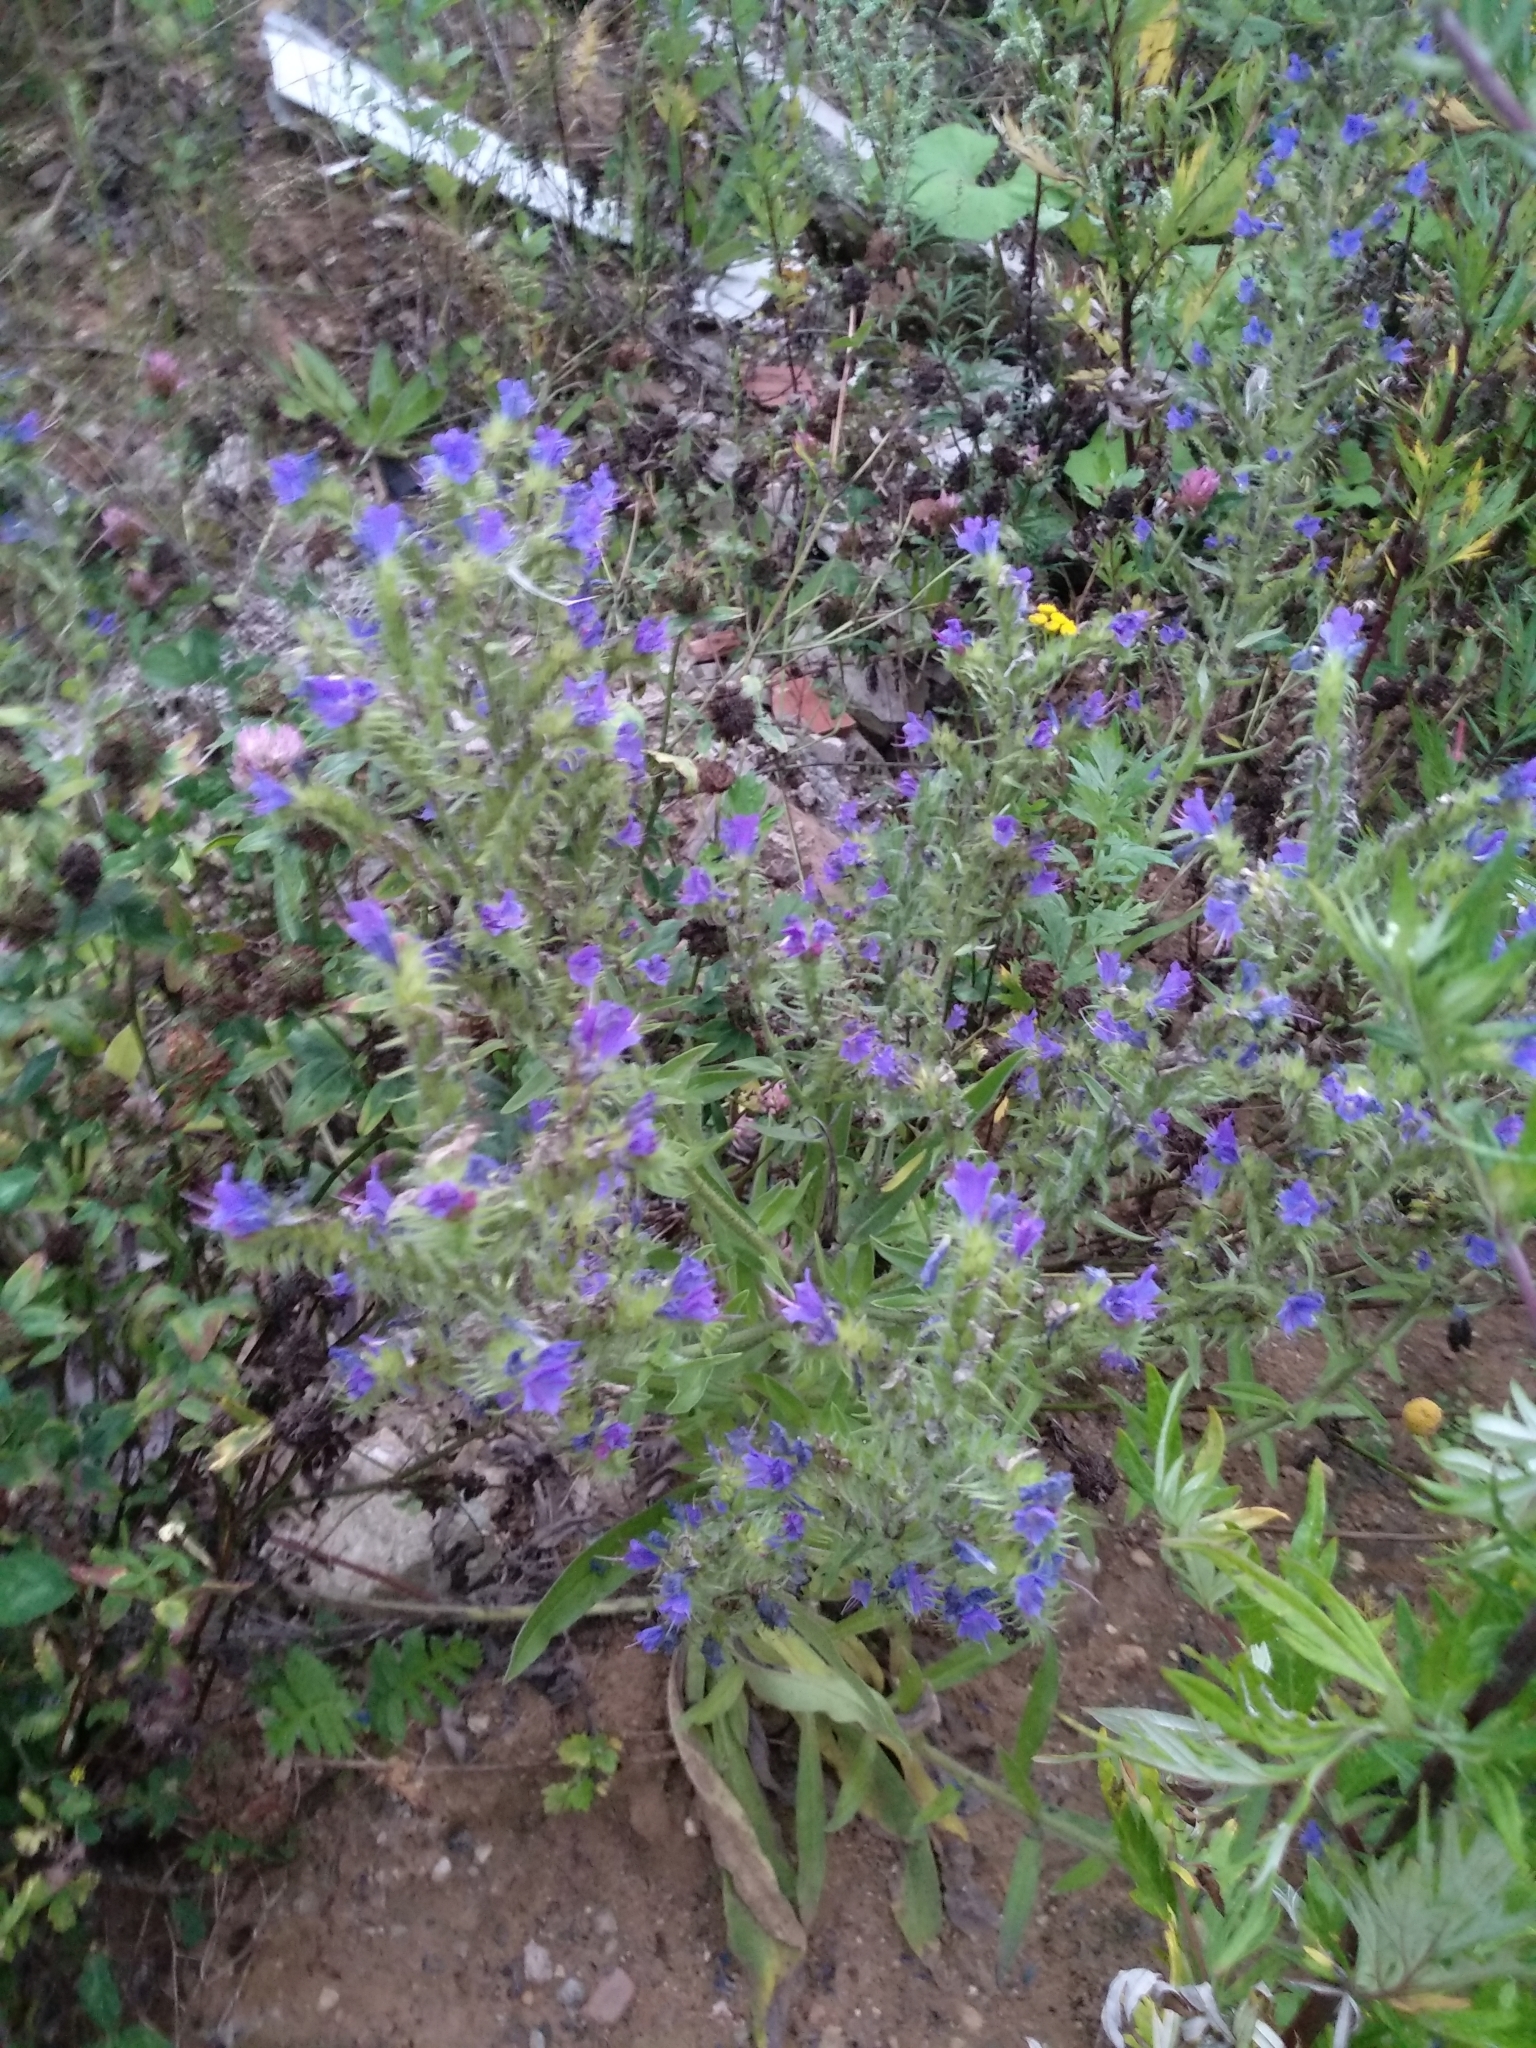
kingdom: Plantae
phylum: Tracheophyta
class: Magnoliopsida
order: Boraginales
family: Boraginaceae
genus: Echium
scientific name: Echium vulgare
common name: Common viper's bugloss
